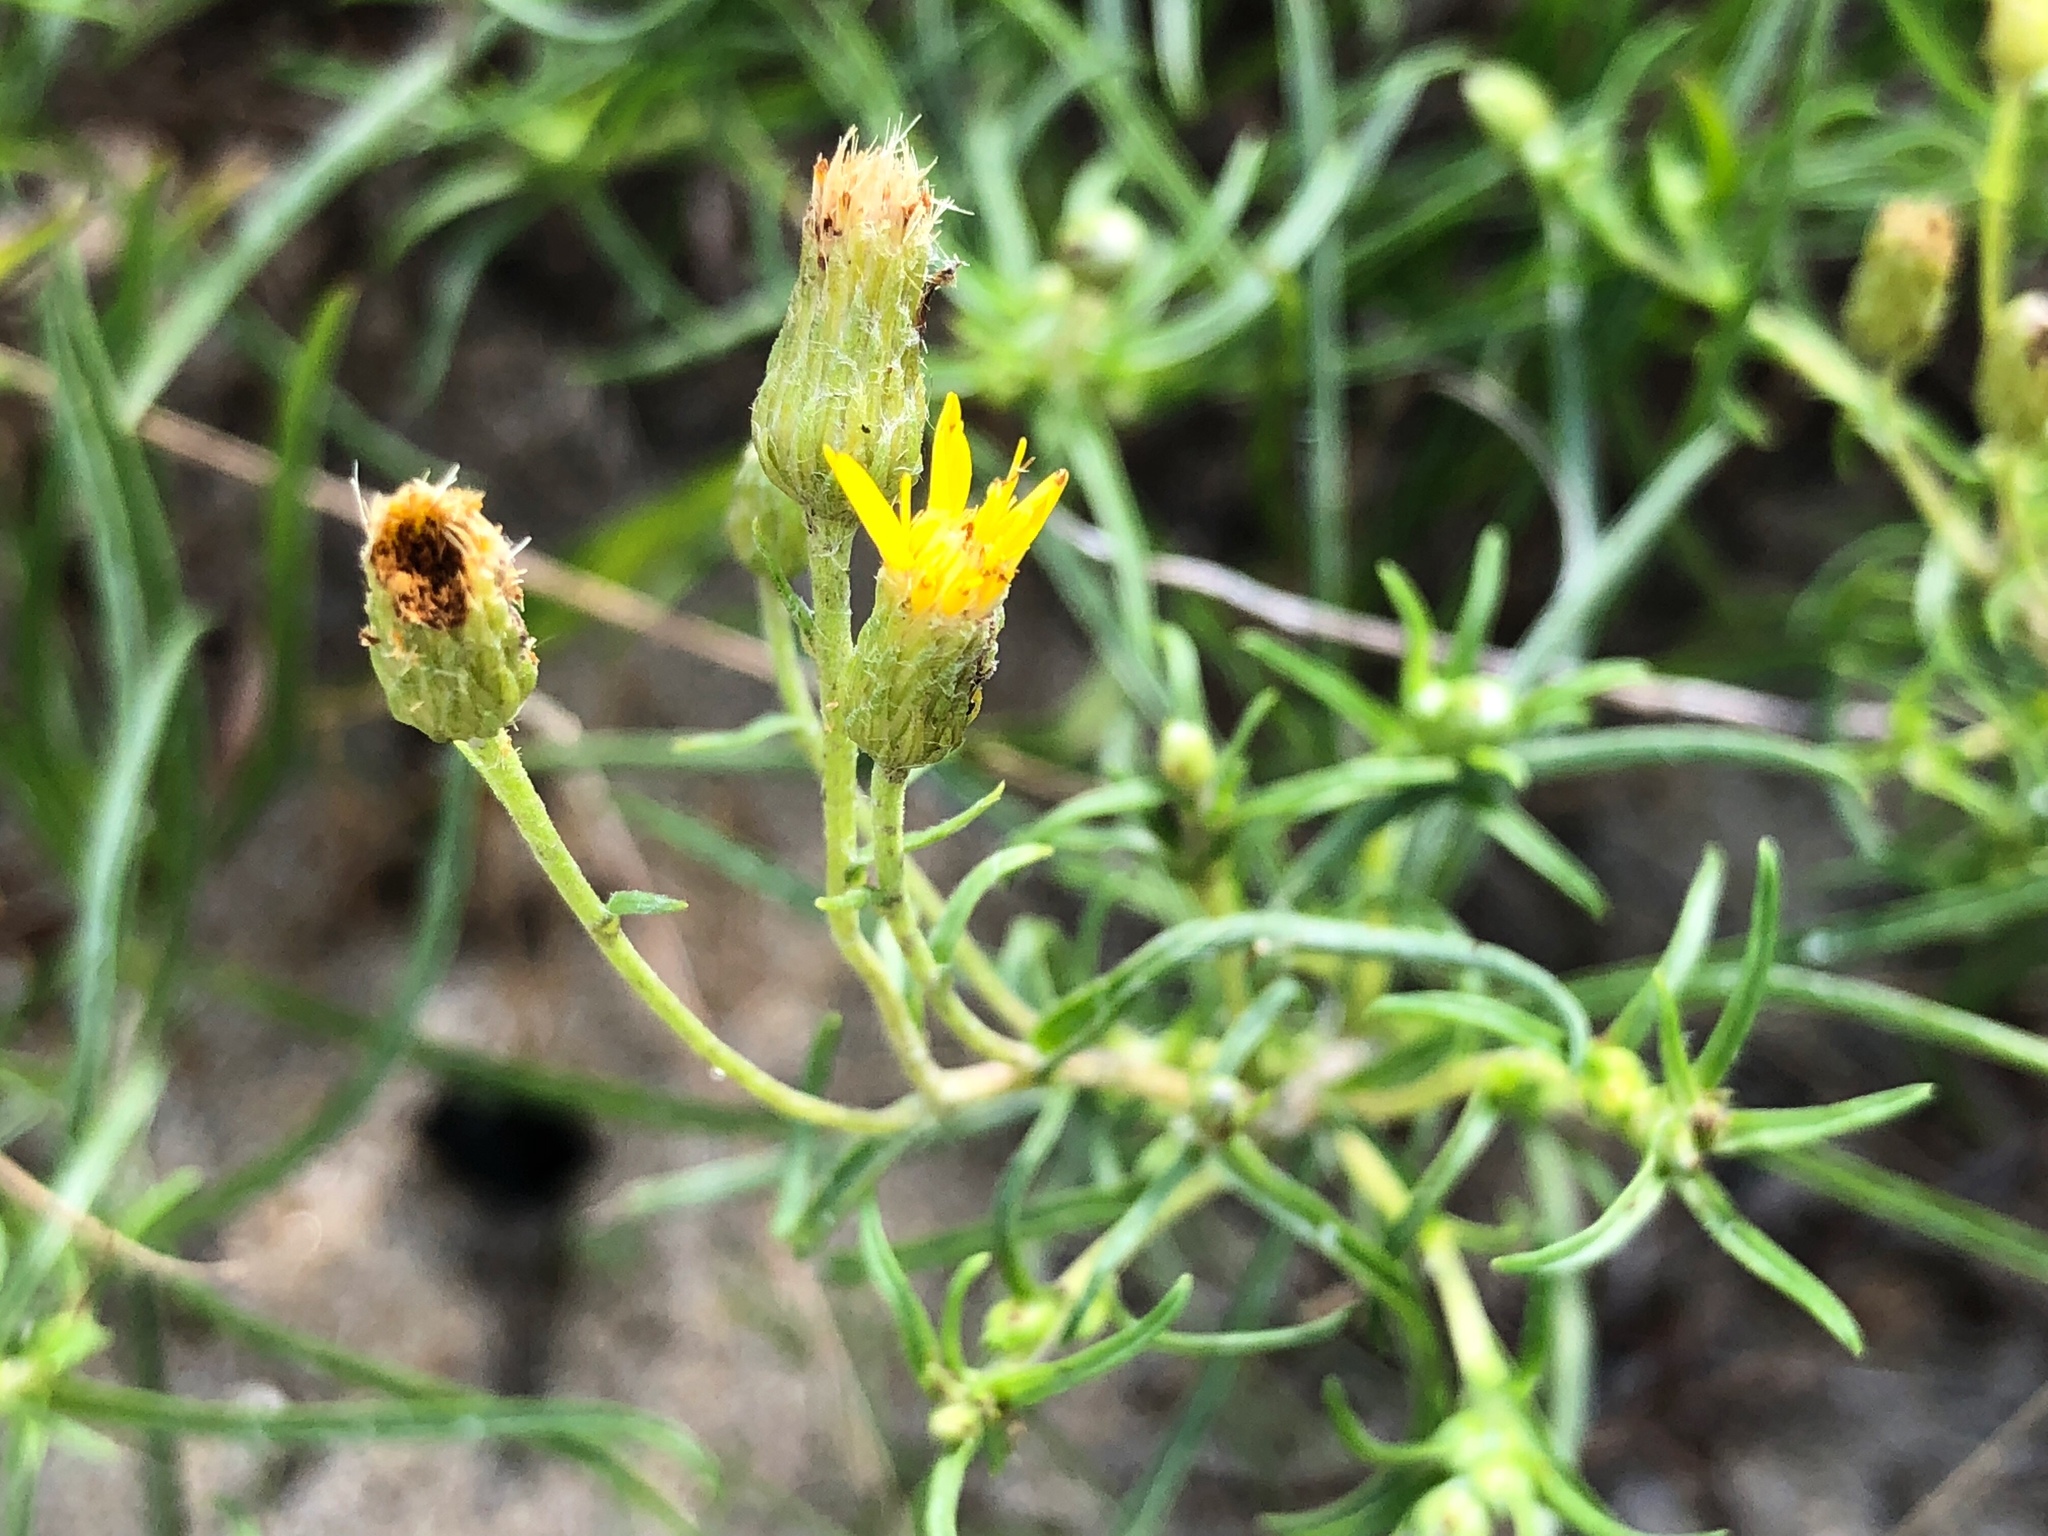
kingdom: Plantae
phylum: Tracheophyta
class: Magnoliopsida
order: Asterales
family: Asteraceae
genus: Pityopsis
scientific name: Pityopsis falcata
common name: Sickle-leaved goldenaster
